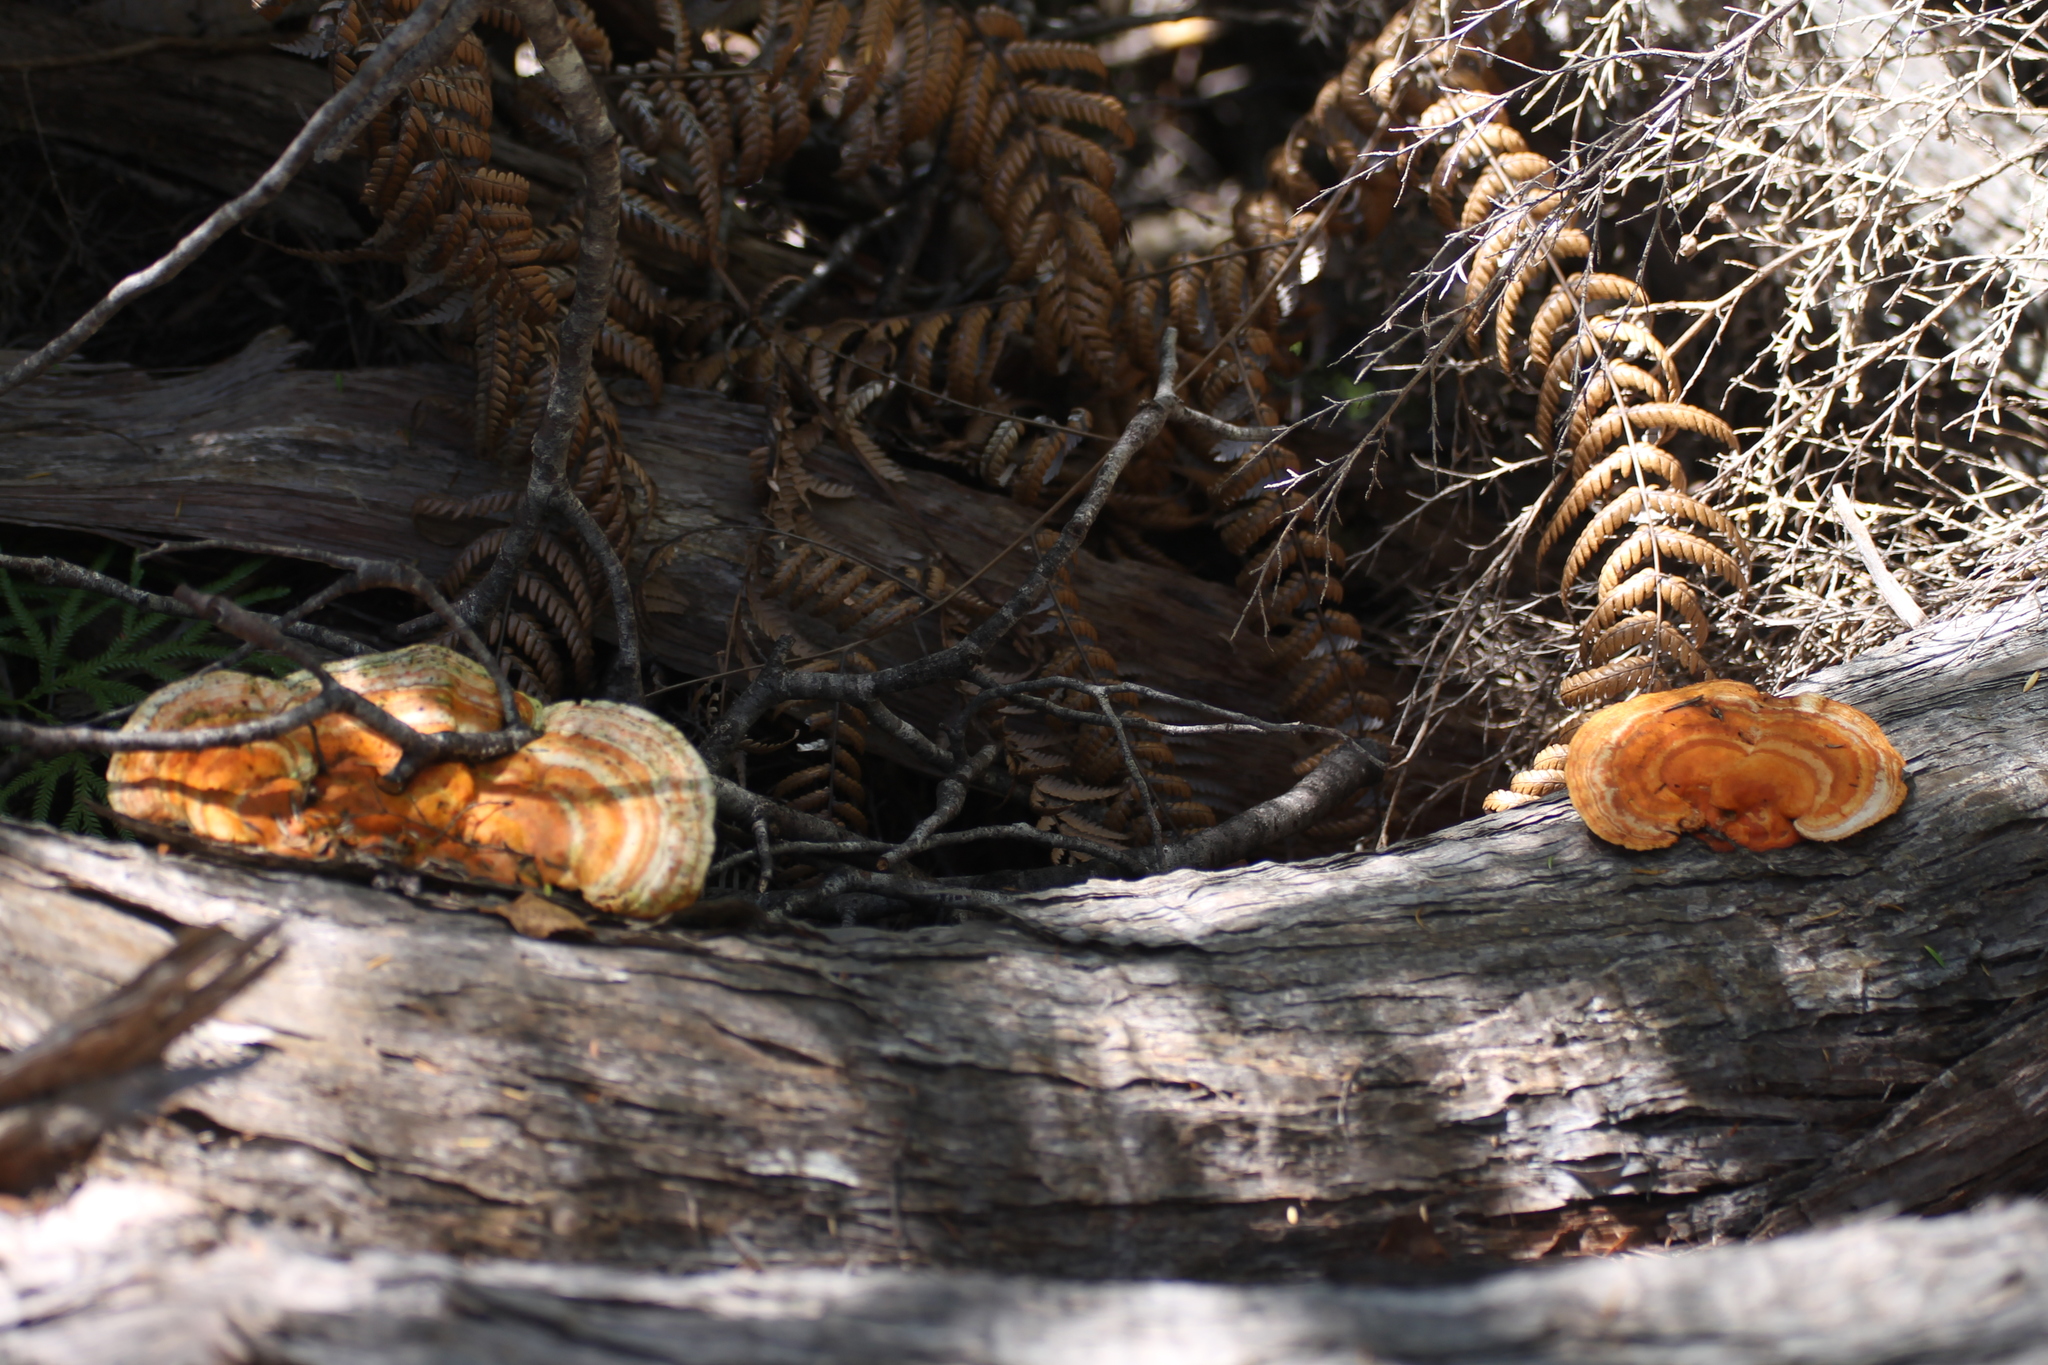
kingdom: Fungi
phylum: Basidiomycota
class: Agaricomycetes
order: Polyporales
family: Polyporaceae
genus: Trametes
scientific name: Trametes coccinea
